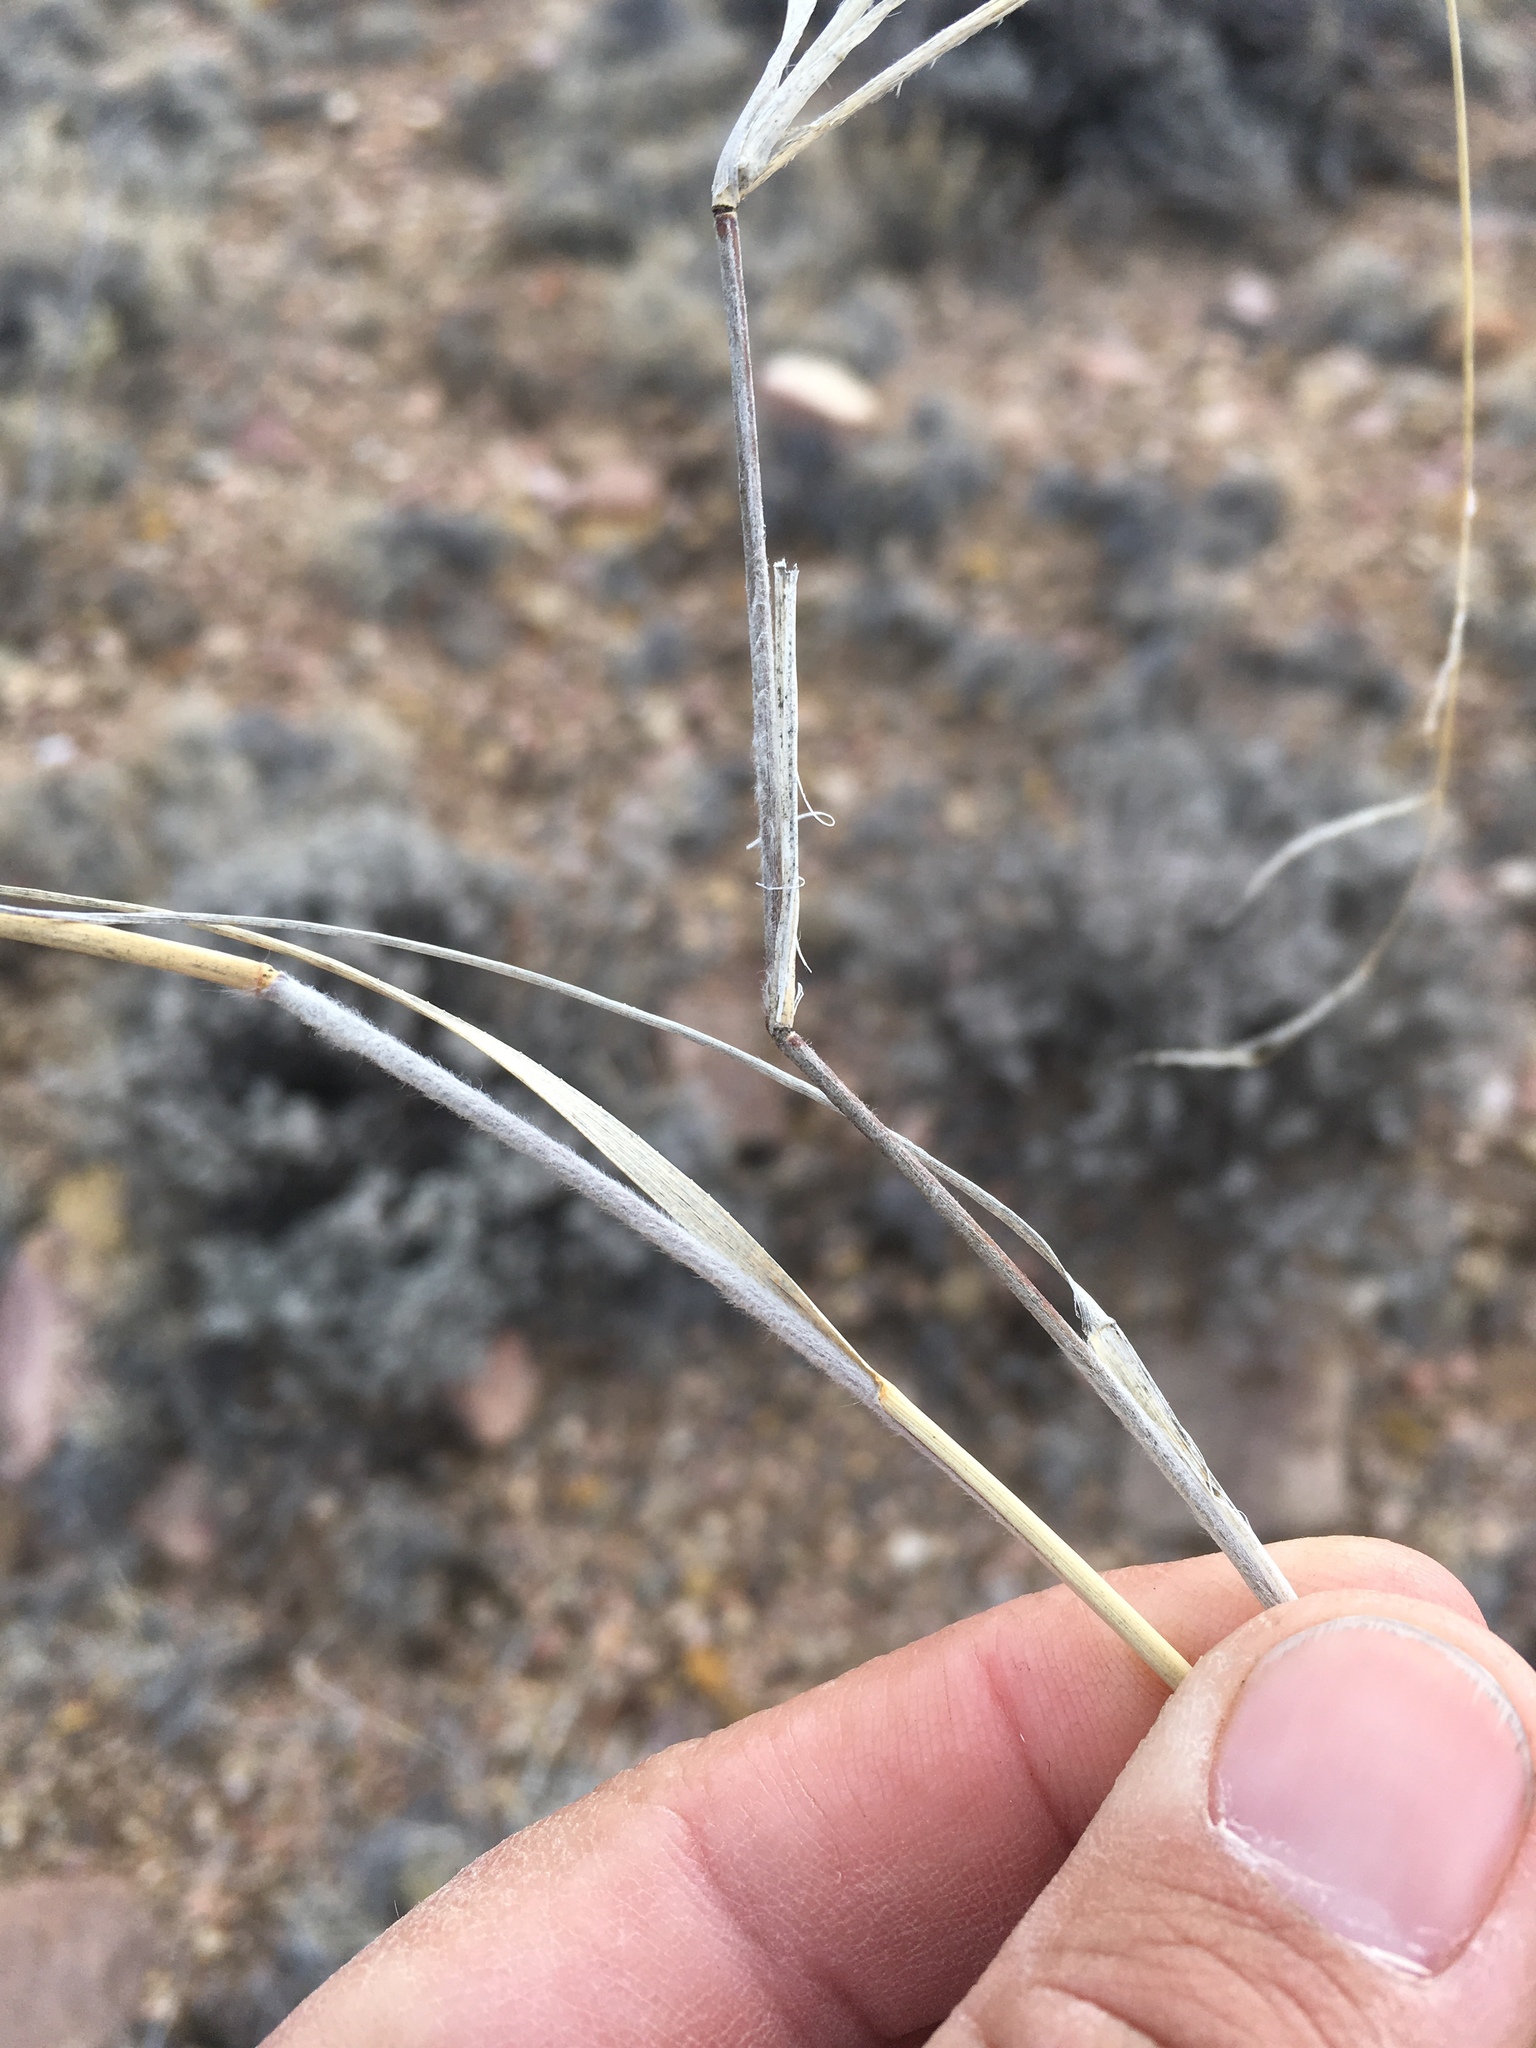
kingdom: Plantae
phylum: Tracheophyta
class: Liliopsida
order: Poales
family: Poaceae
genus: Bouteloua
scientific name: Bouteloua eriopoda
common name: Woolly foot grama
